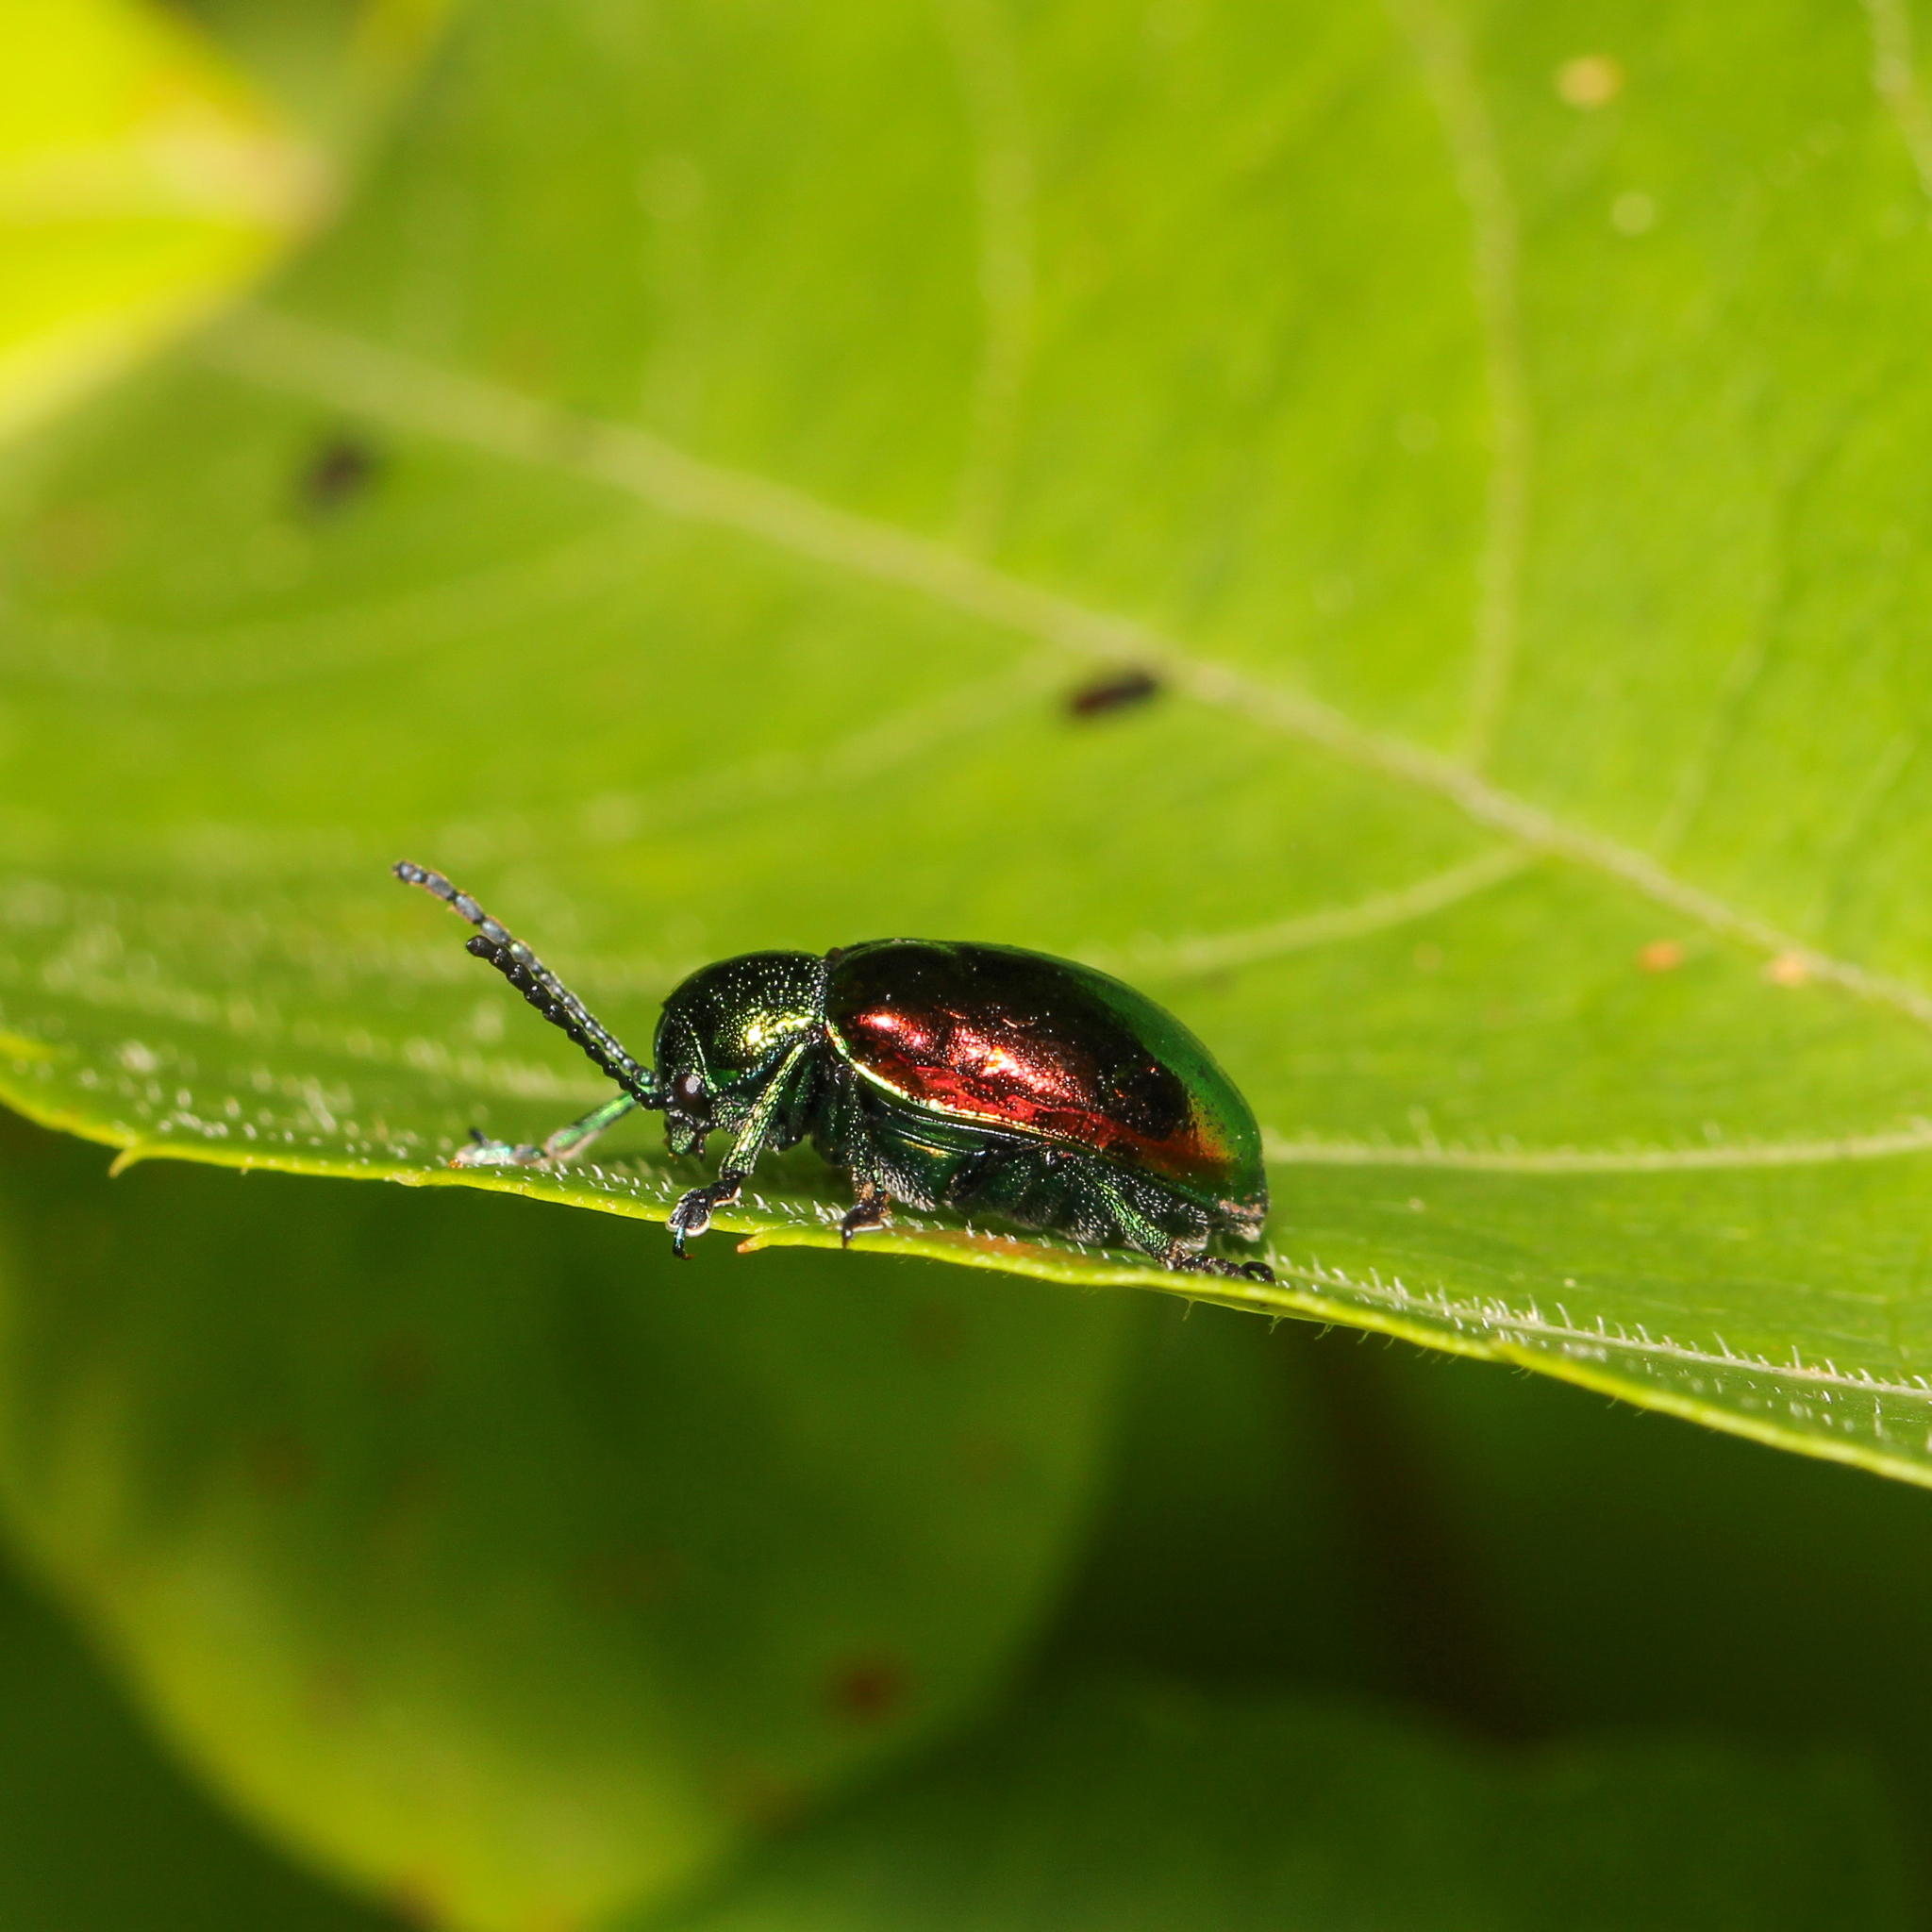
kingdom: Animalia
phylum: Arthropoda
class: Insecta
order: Coleoptera
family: Chrysomelidae
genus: Chrysochus
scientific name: Chrysochus auratus
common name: Dogbane leaf beetle
